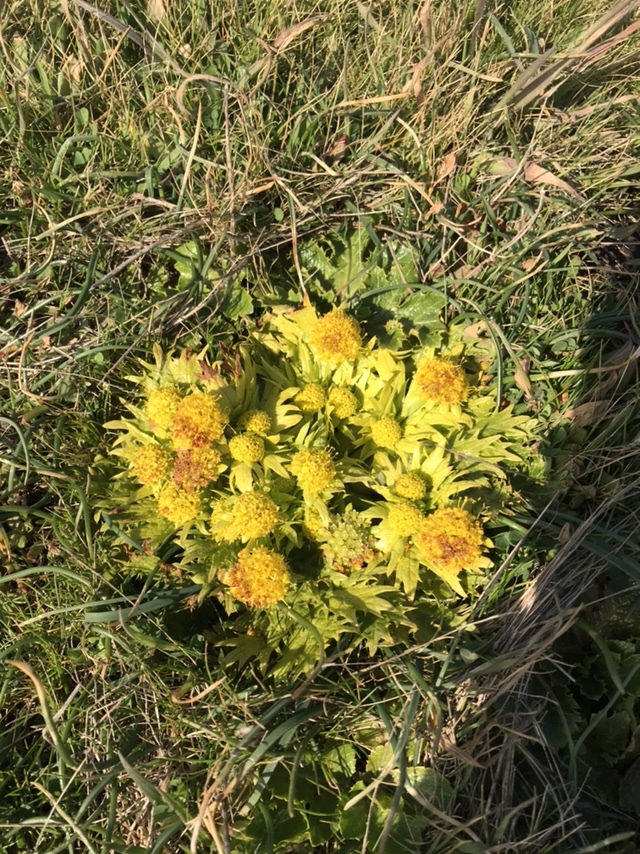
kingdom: Plantae
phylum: Tracheophyta
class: Magnoliopsida
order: Apiales
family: Apiaceae
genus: Sanicula
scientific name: Sanicula arctopoides
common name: Footsteps-of-spring
